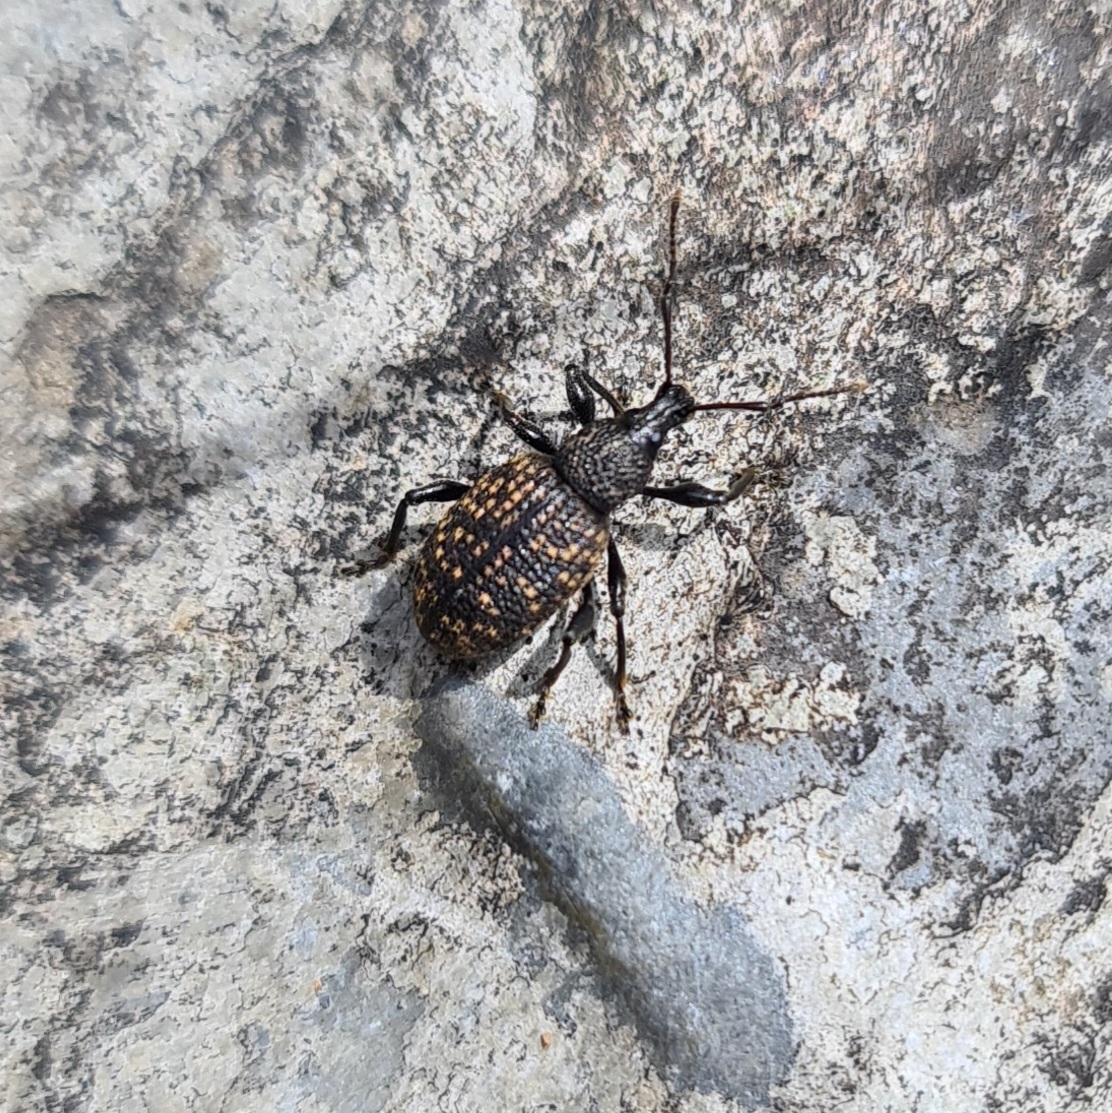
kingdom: Animalia
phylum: Arthropoda
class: Insecta
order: Coleoptera
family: Curculionidae
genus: Otiorhynchus
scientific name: Otiorhynchus sulcatus
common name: Black vine weevil
